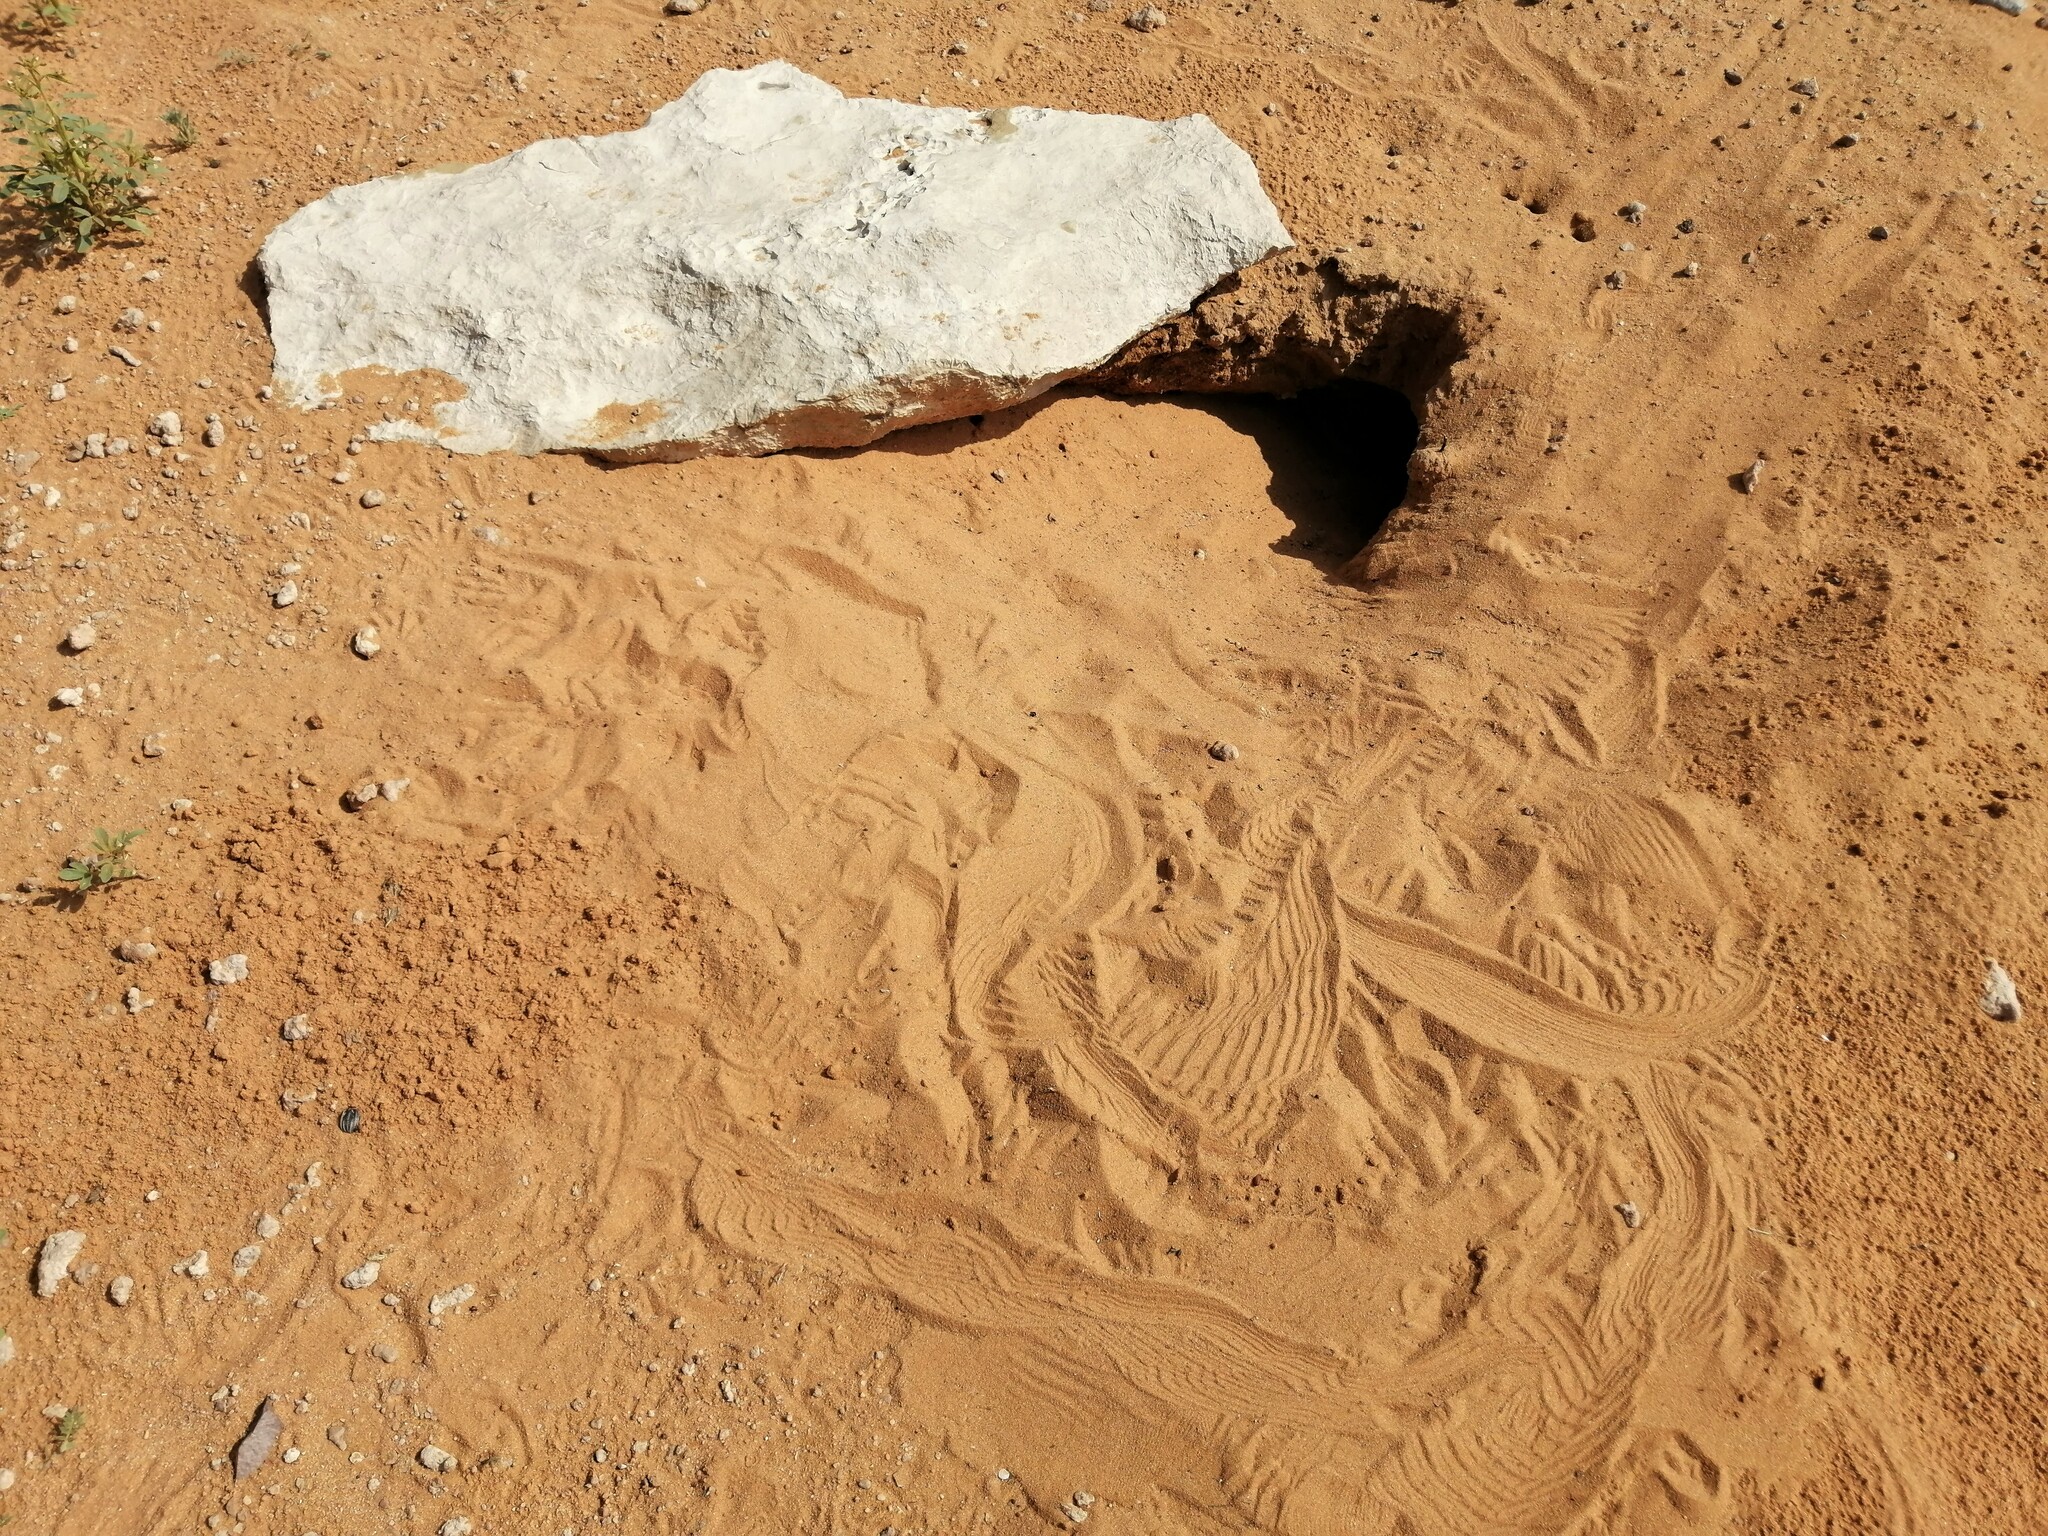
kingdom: Animalia
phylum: Chordata
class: Squamata
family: Agamidae
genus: Uromastyx
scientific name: Uromastyx aegyptia
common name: Egyptian mastigure
